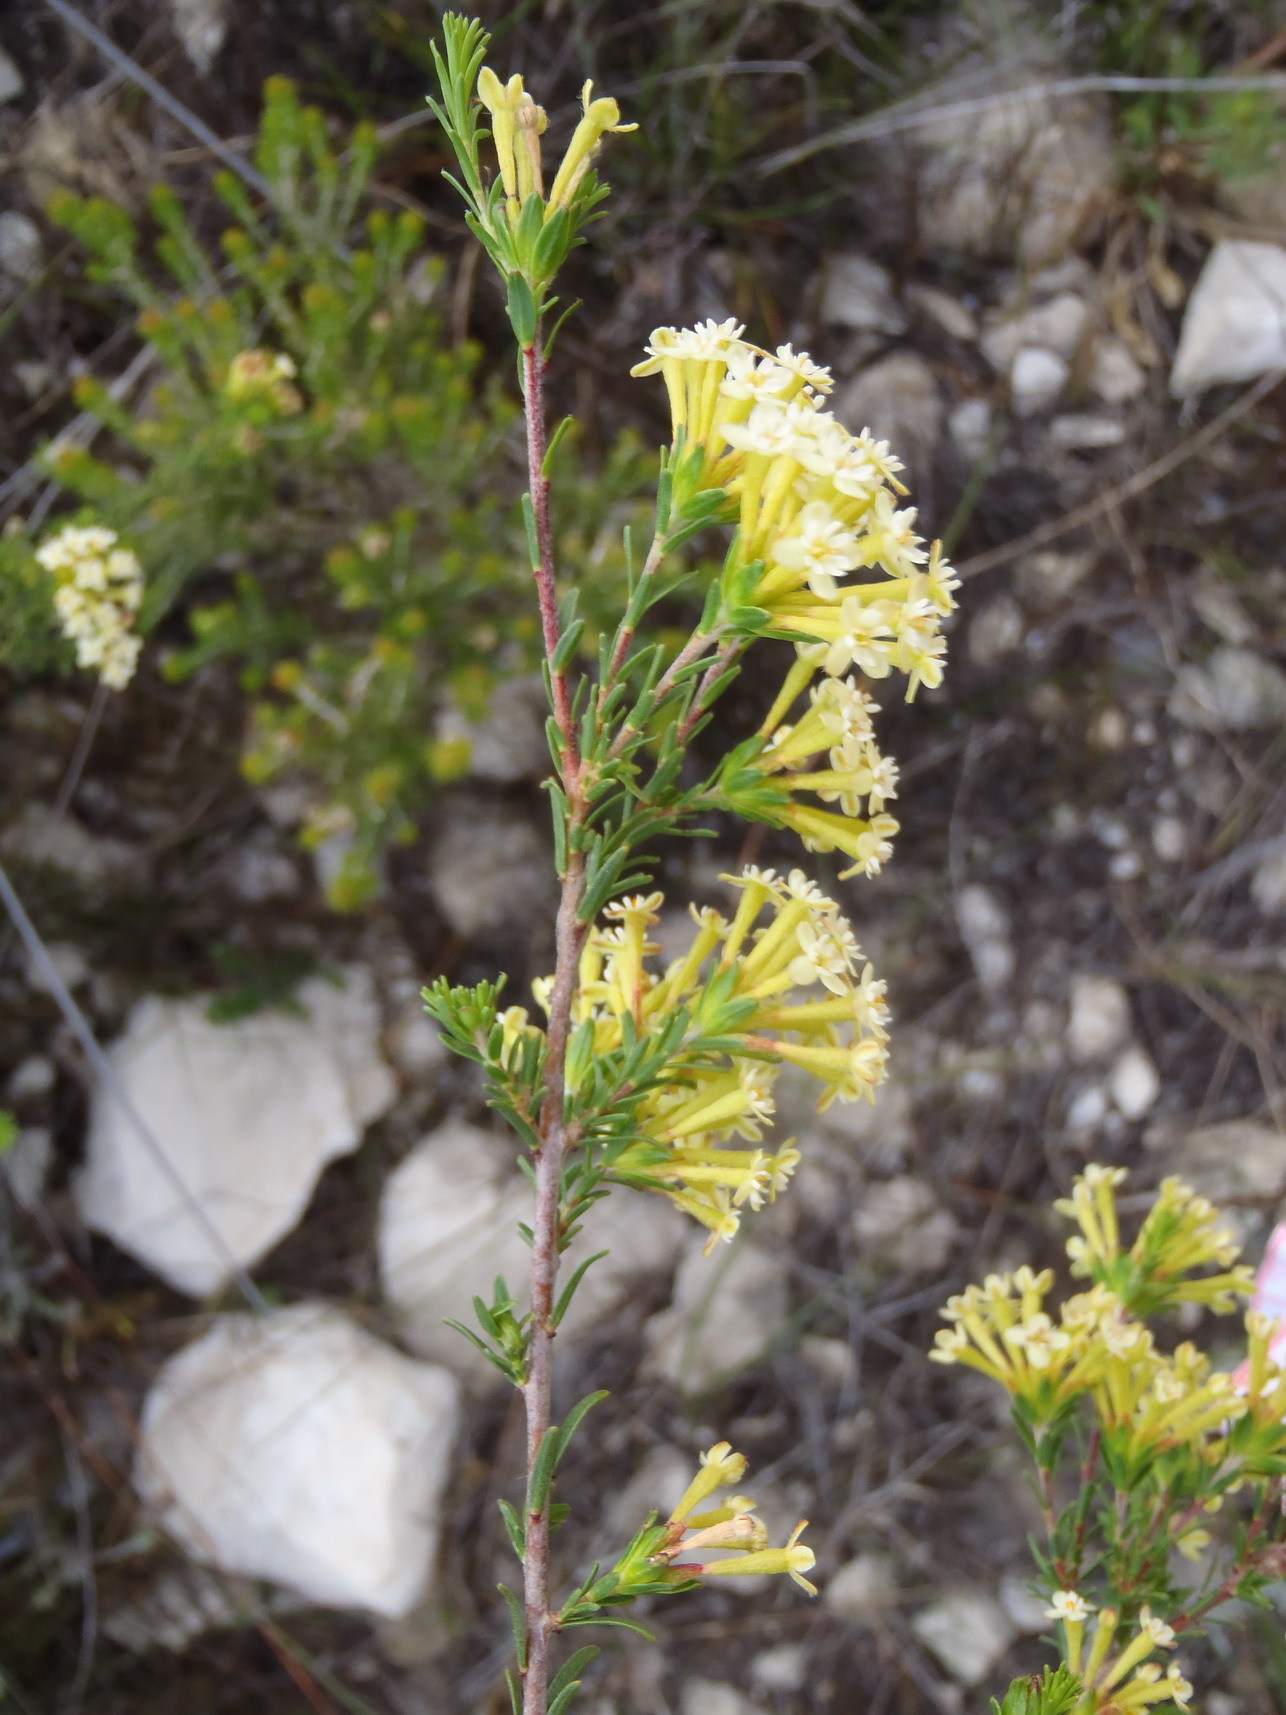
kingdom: Plantae
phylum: Tracheophyta
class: Magnoliopsida
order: Malvales
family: Thymelaeaceae
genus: Gnidia
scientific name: Gnidia squarrosa
